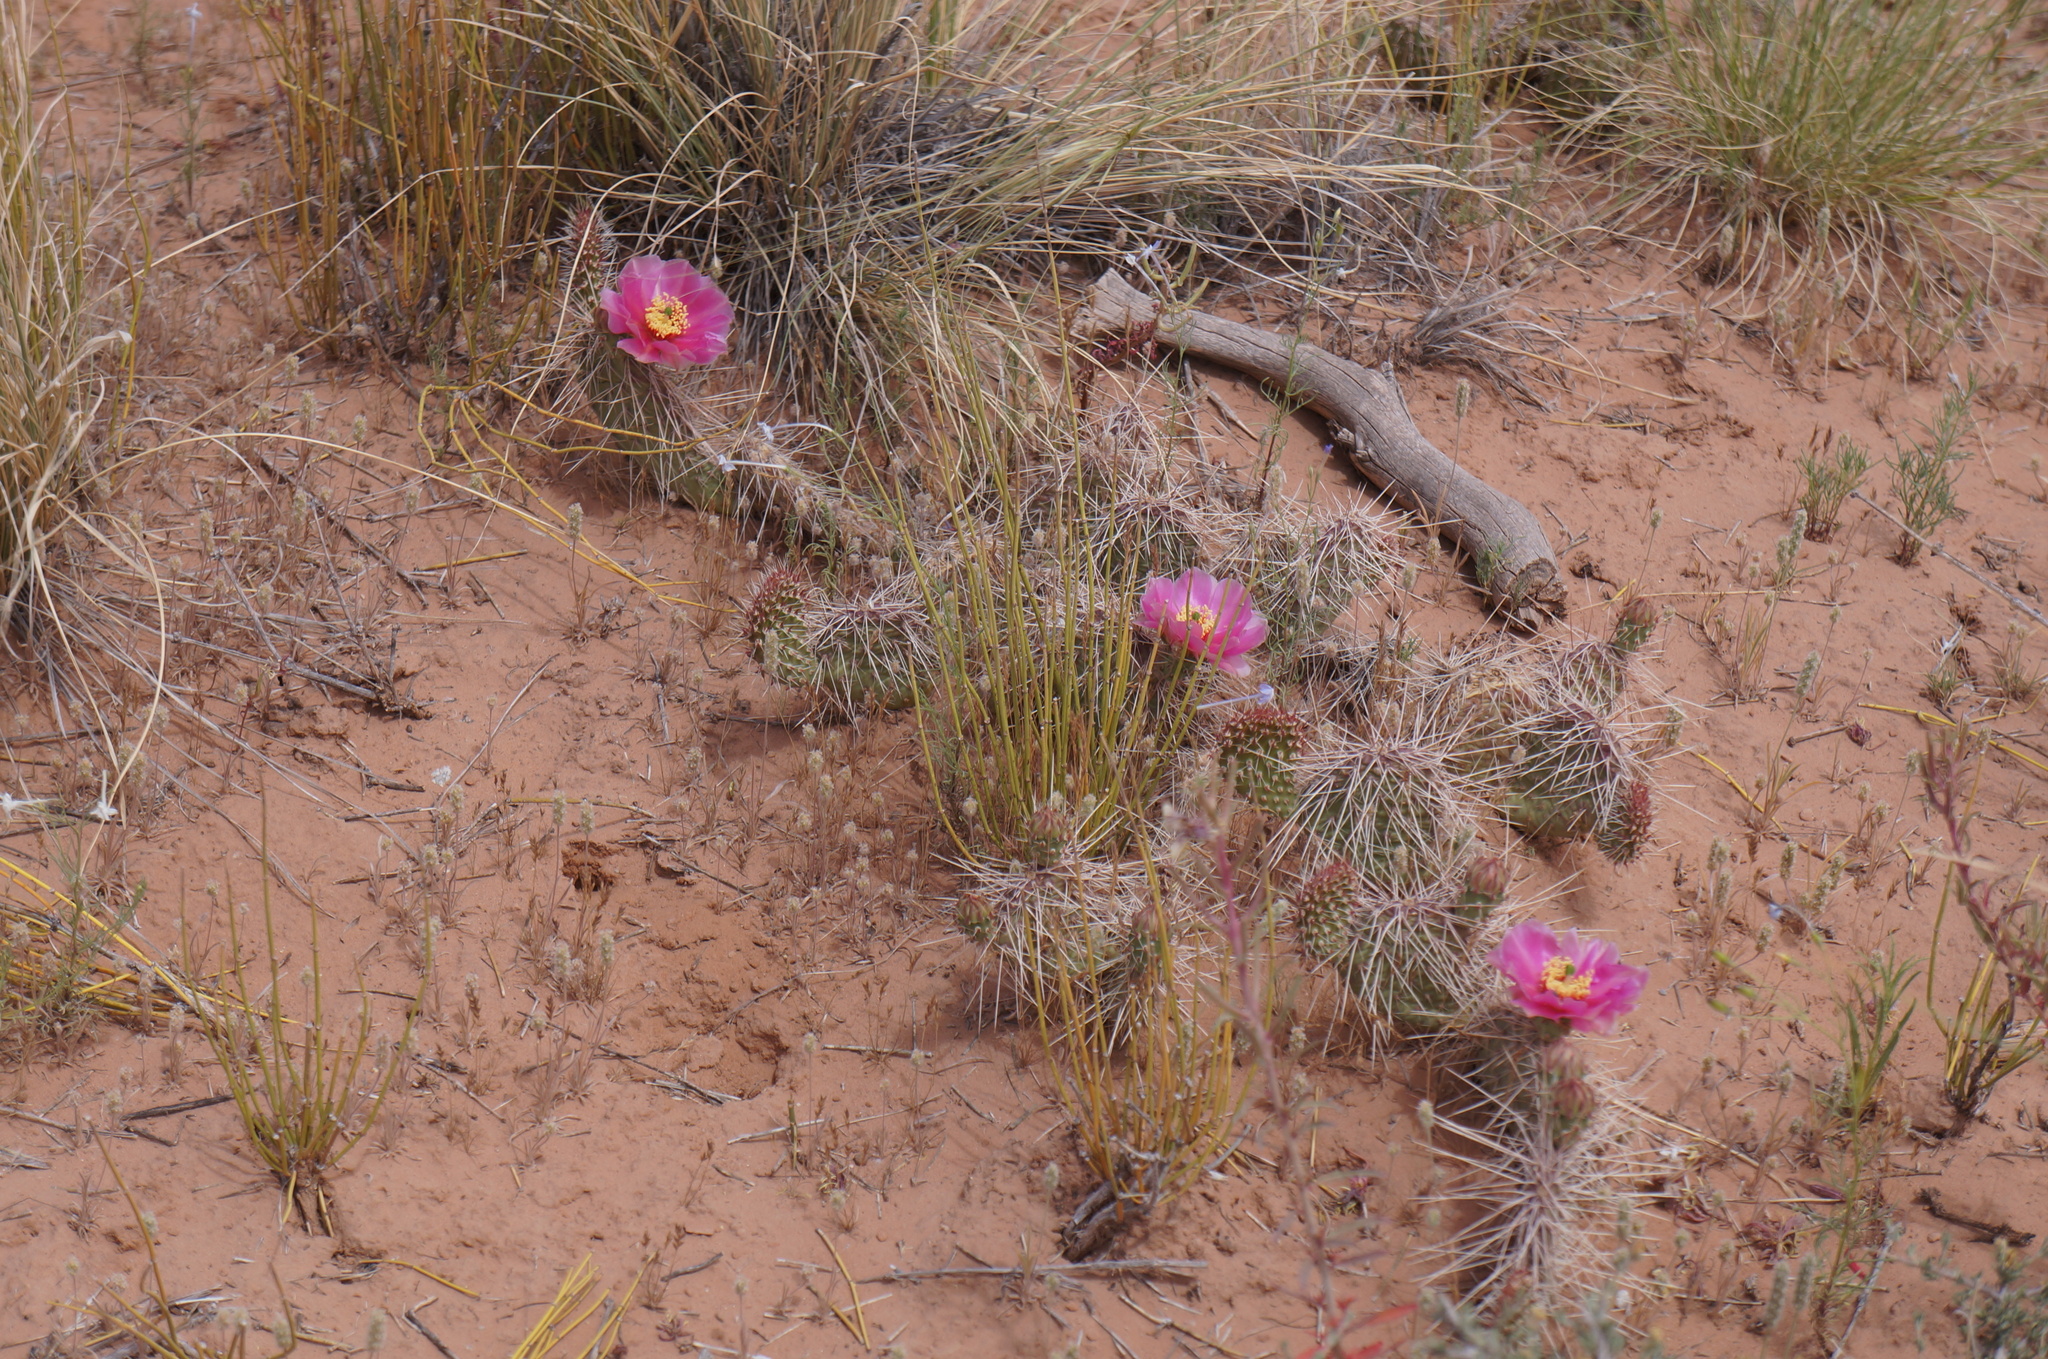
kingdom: Plantae
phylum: Tracheophyta
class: Magnoliopsida
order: Caryophyllales
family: Cactaceae
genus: Opuntia
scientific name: Opuntia polyacantha
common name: Plains prickly-pear
